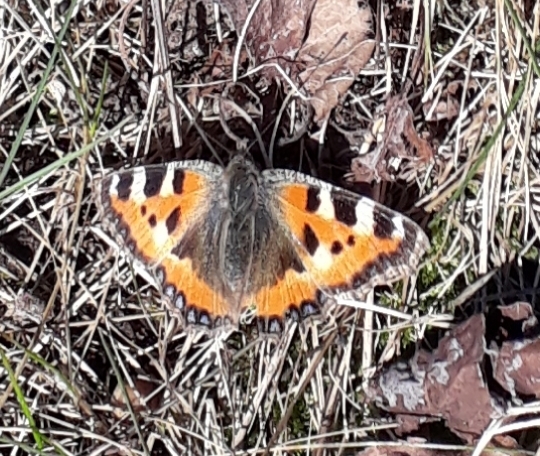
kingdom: Animalia
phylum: Arthropoda
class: Insecta
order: Lepidoptera
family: Nymphalidae
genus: Aglais
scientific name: Aglais urticae
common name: Small tortoiseshell
